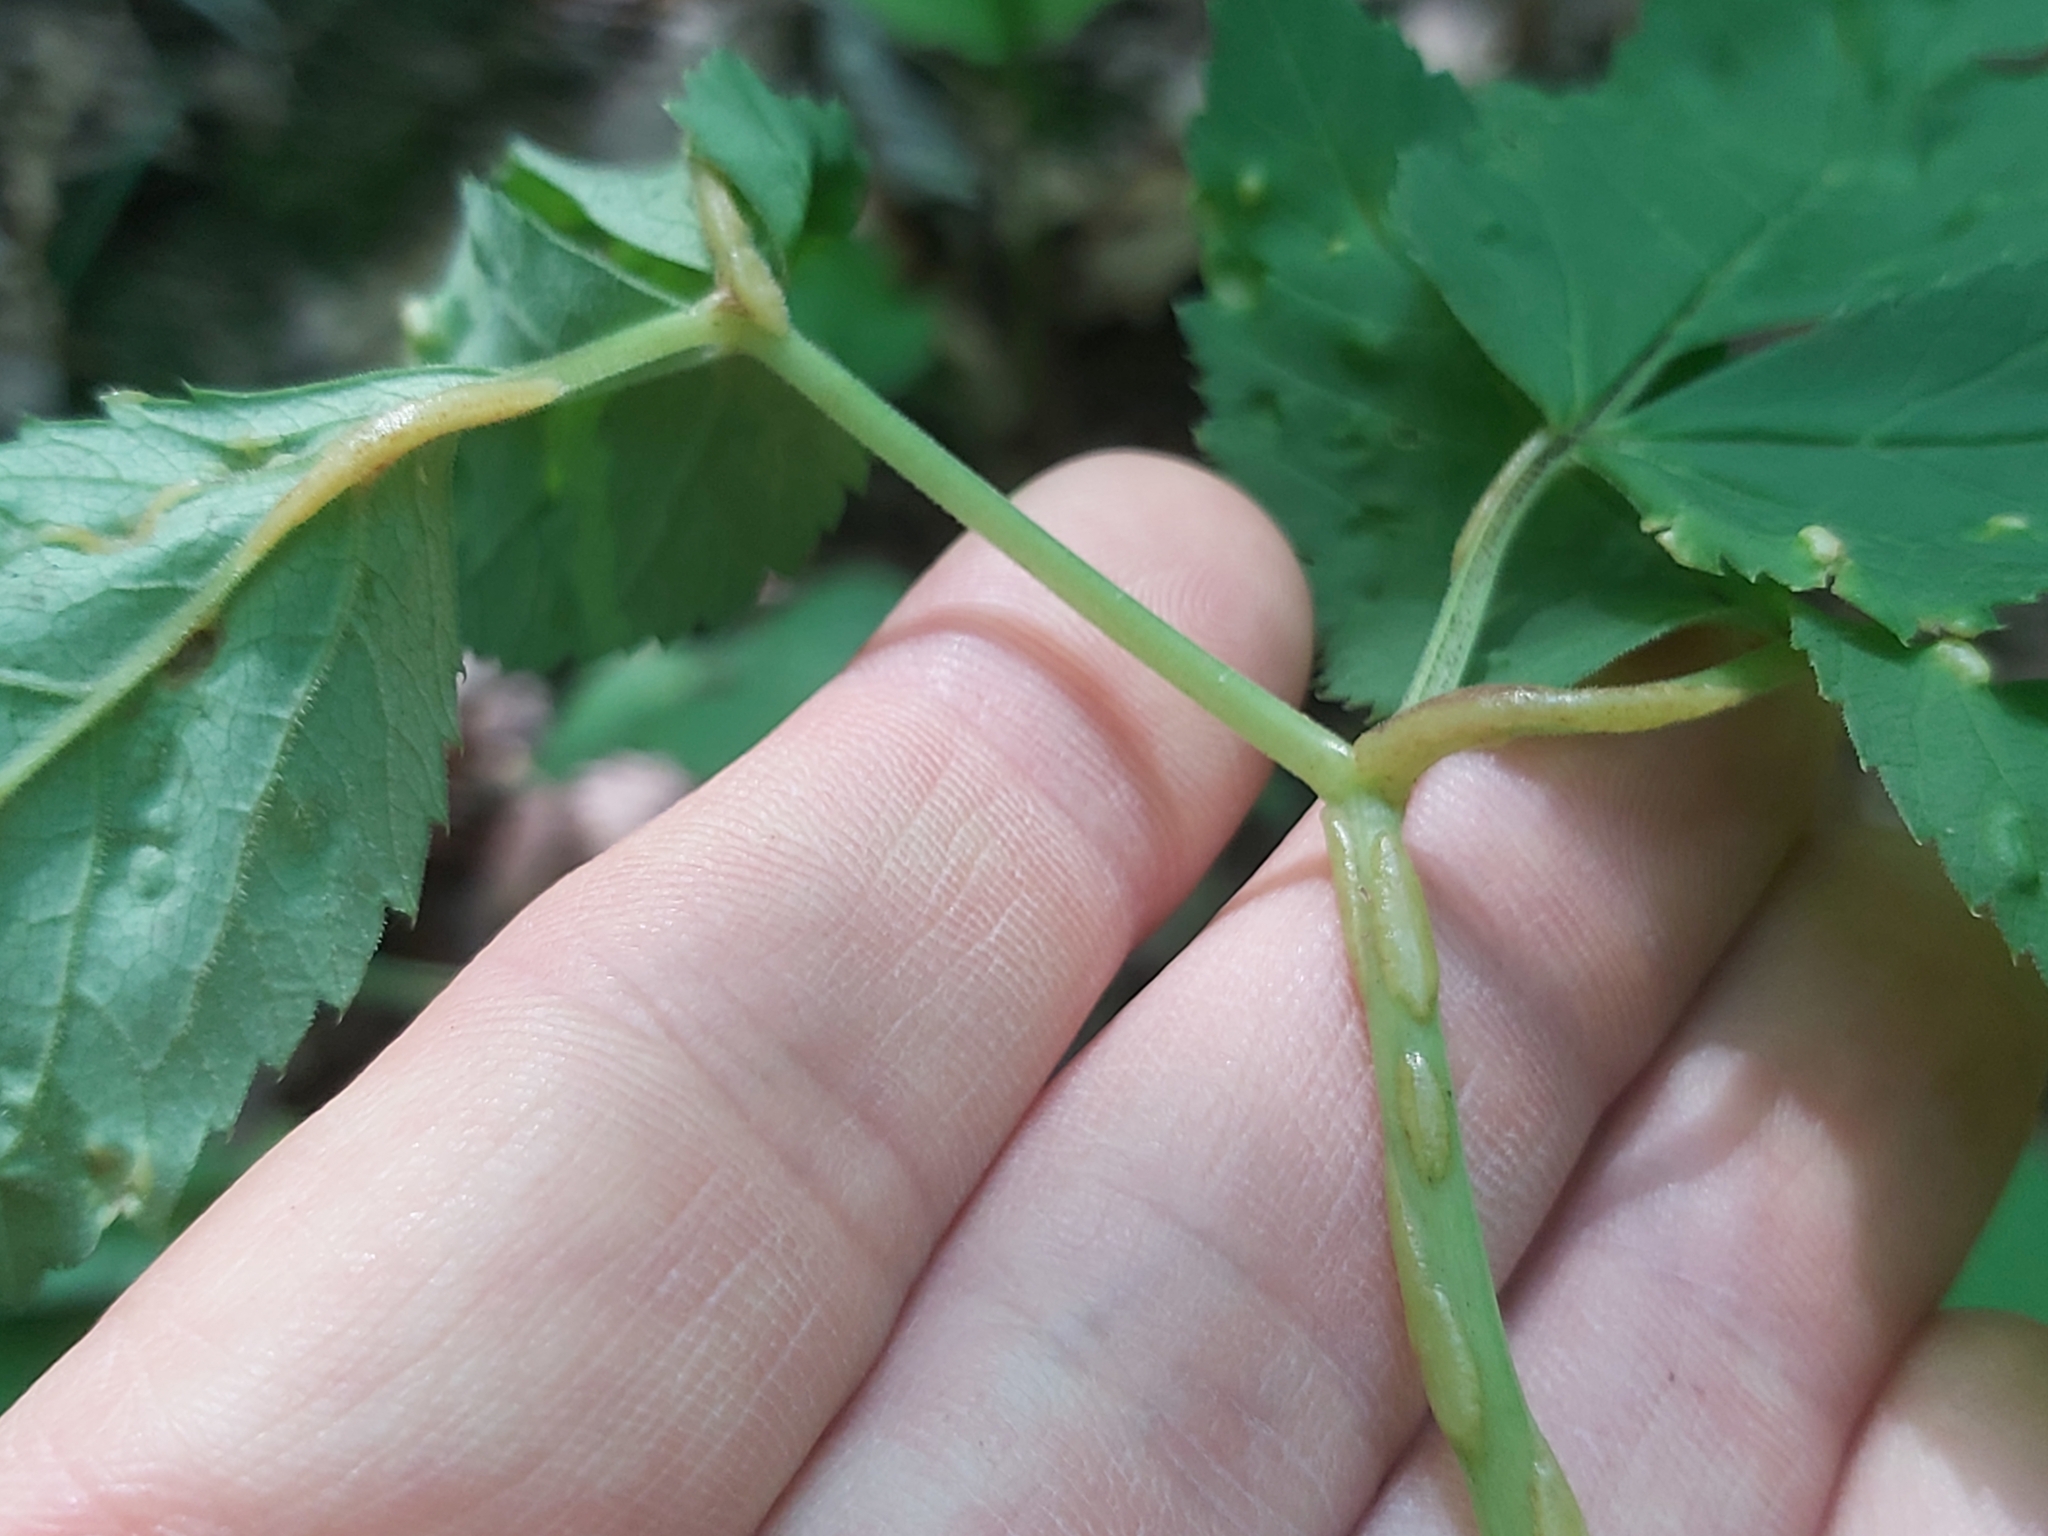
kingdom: Fungi
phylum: Ascomycota
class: Taphrinomycetes
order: Taphrinales
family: Taphrinaceae
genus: Protomyces
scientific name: Protomyces macrosporus
